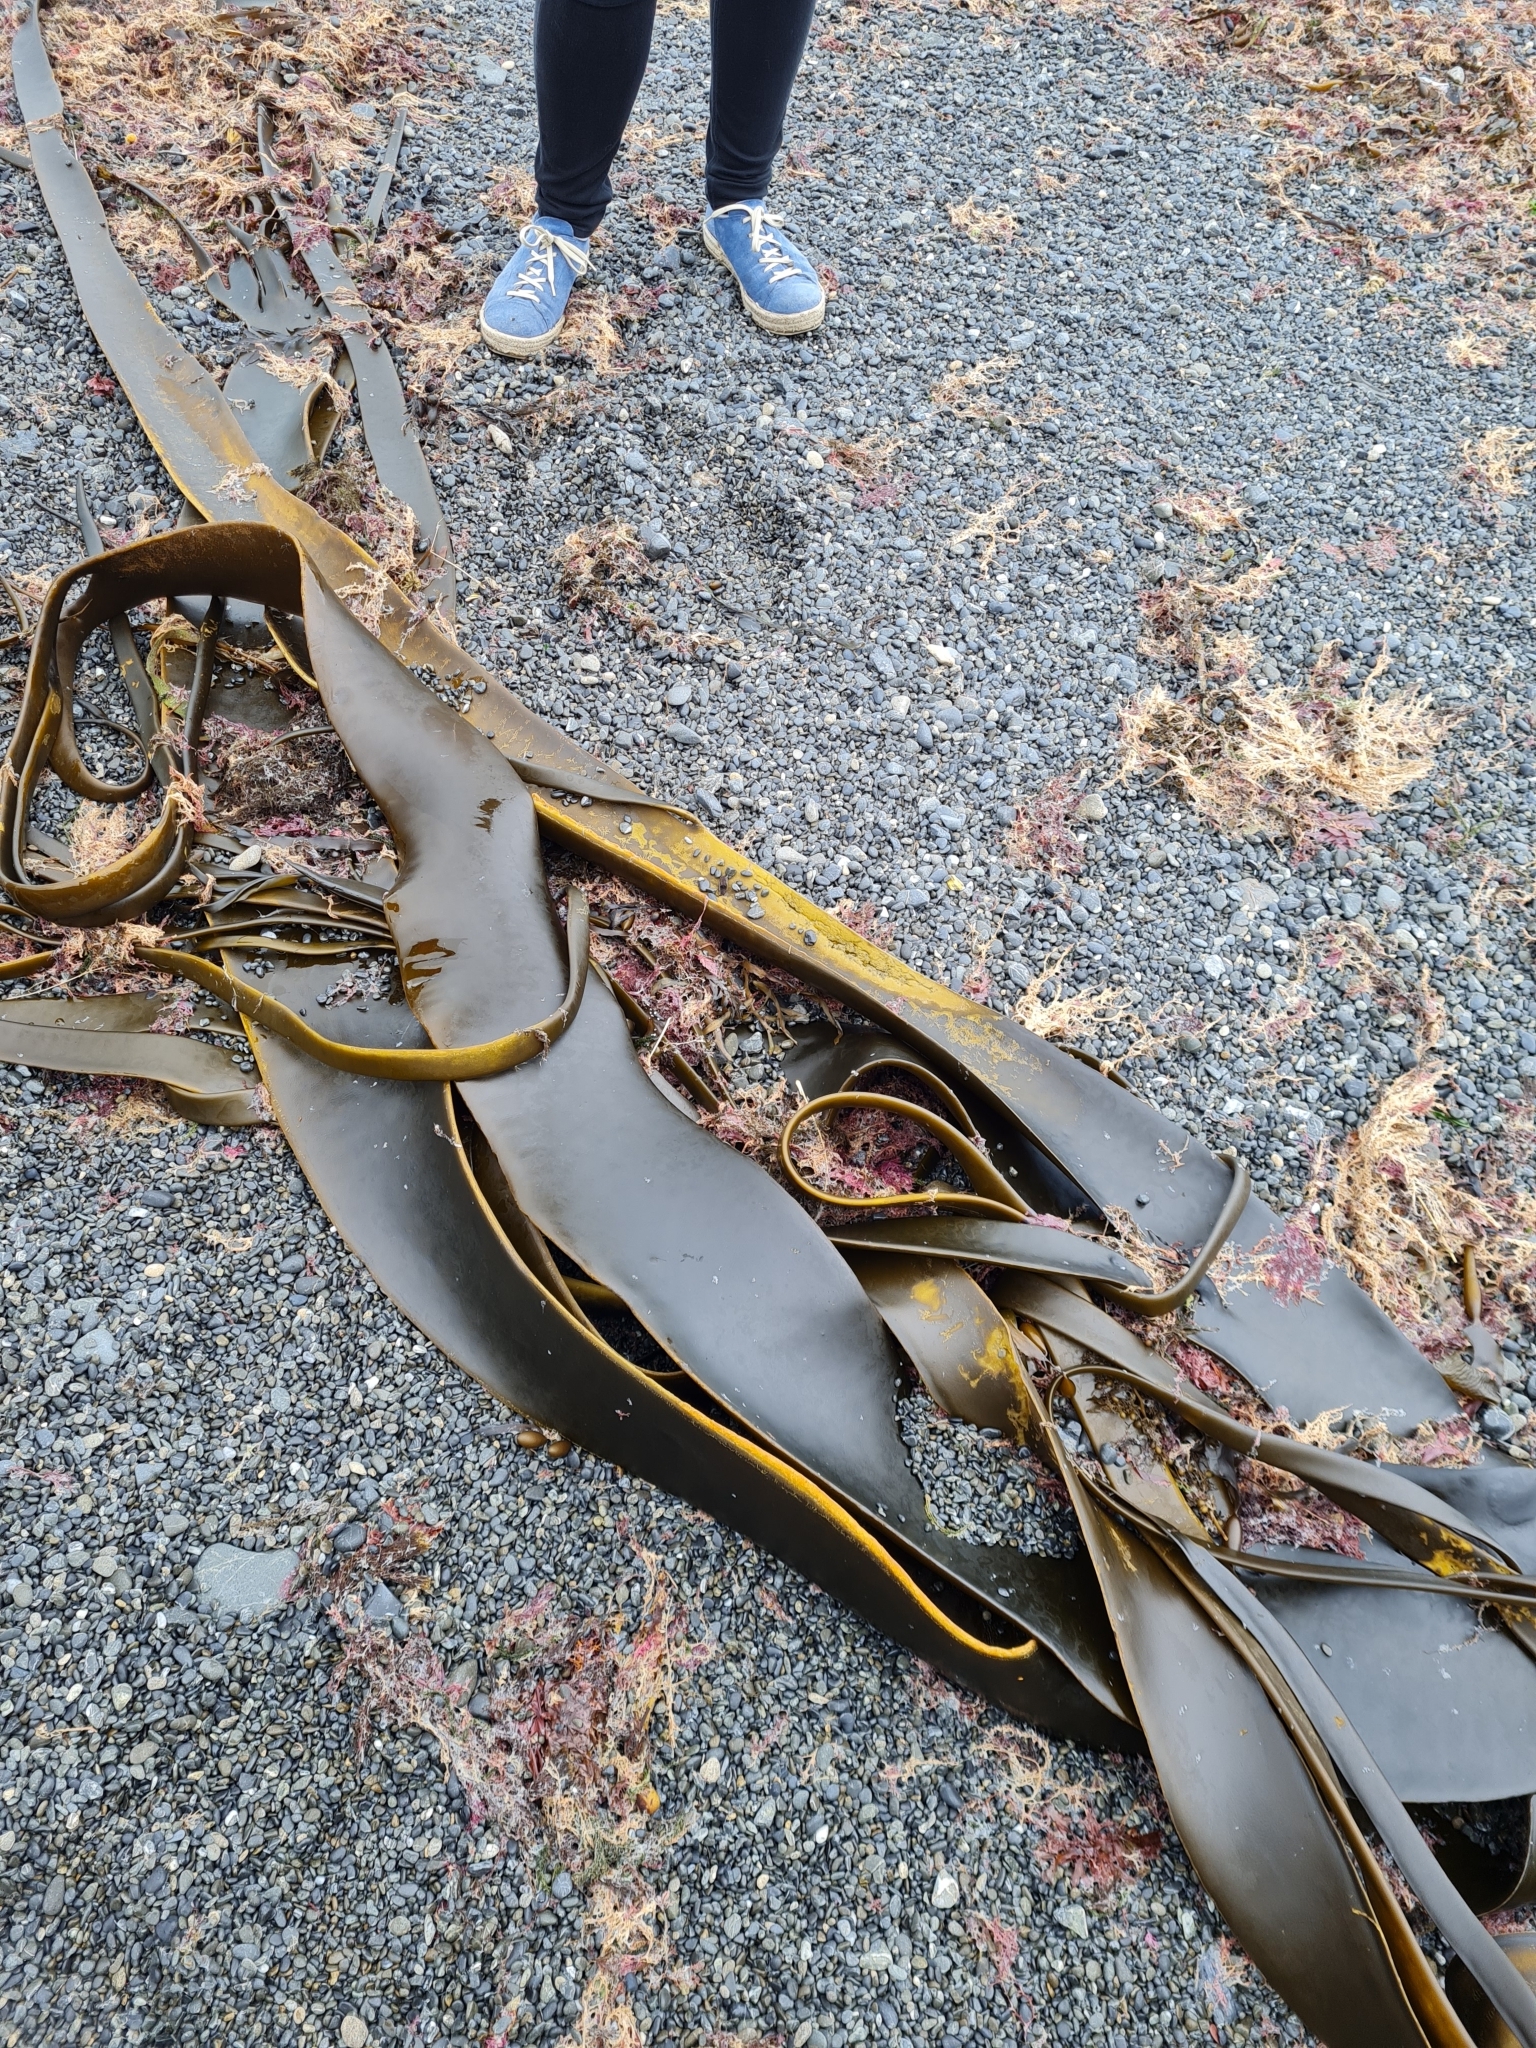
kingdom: Chromista
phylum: Ochrophyta
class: Phaeophyceae
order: Fucales
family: Durvillaeaceae
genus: Durvillaea
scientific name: Durvillaea antarctica
